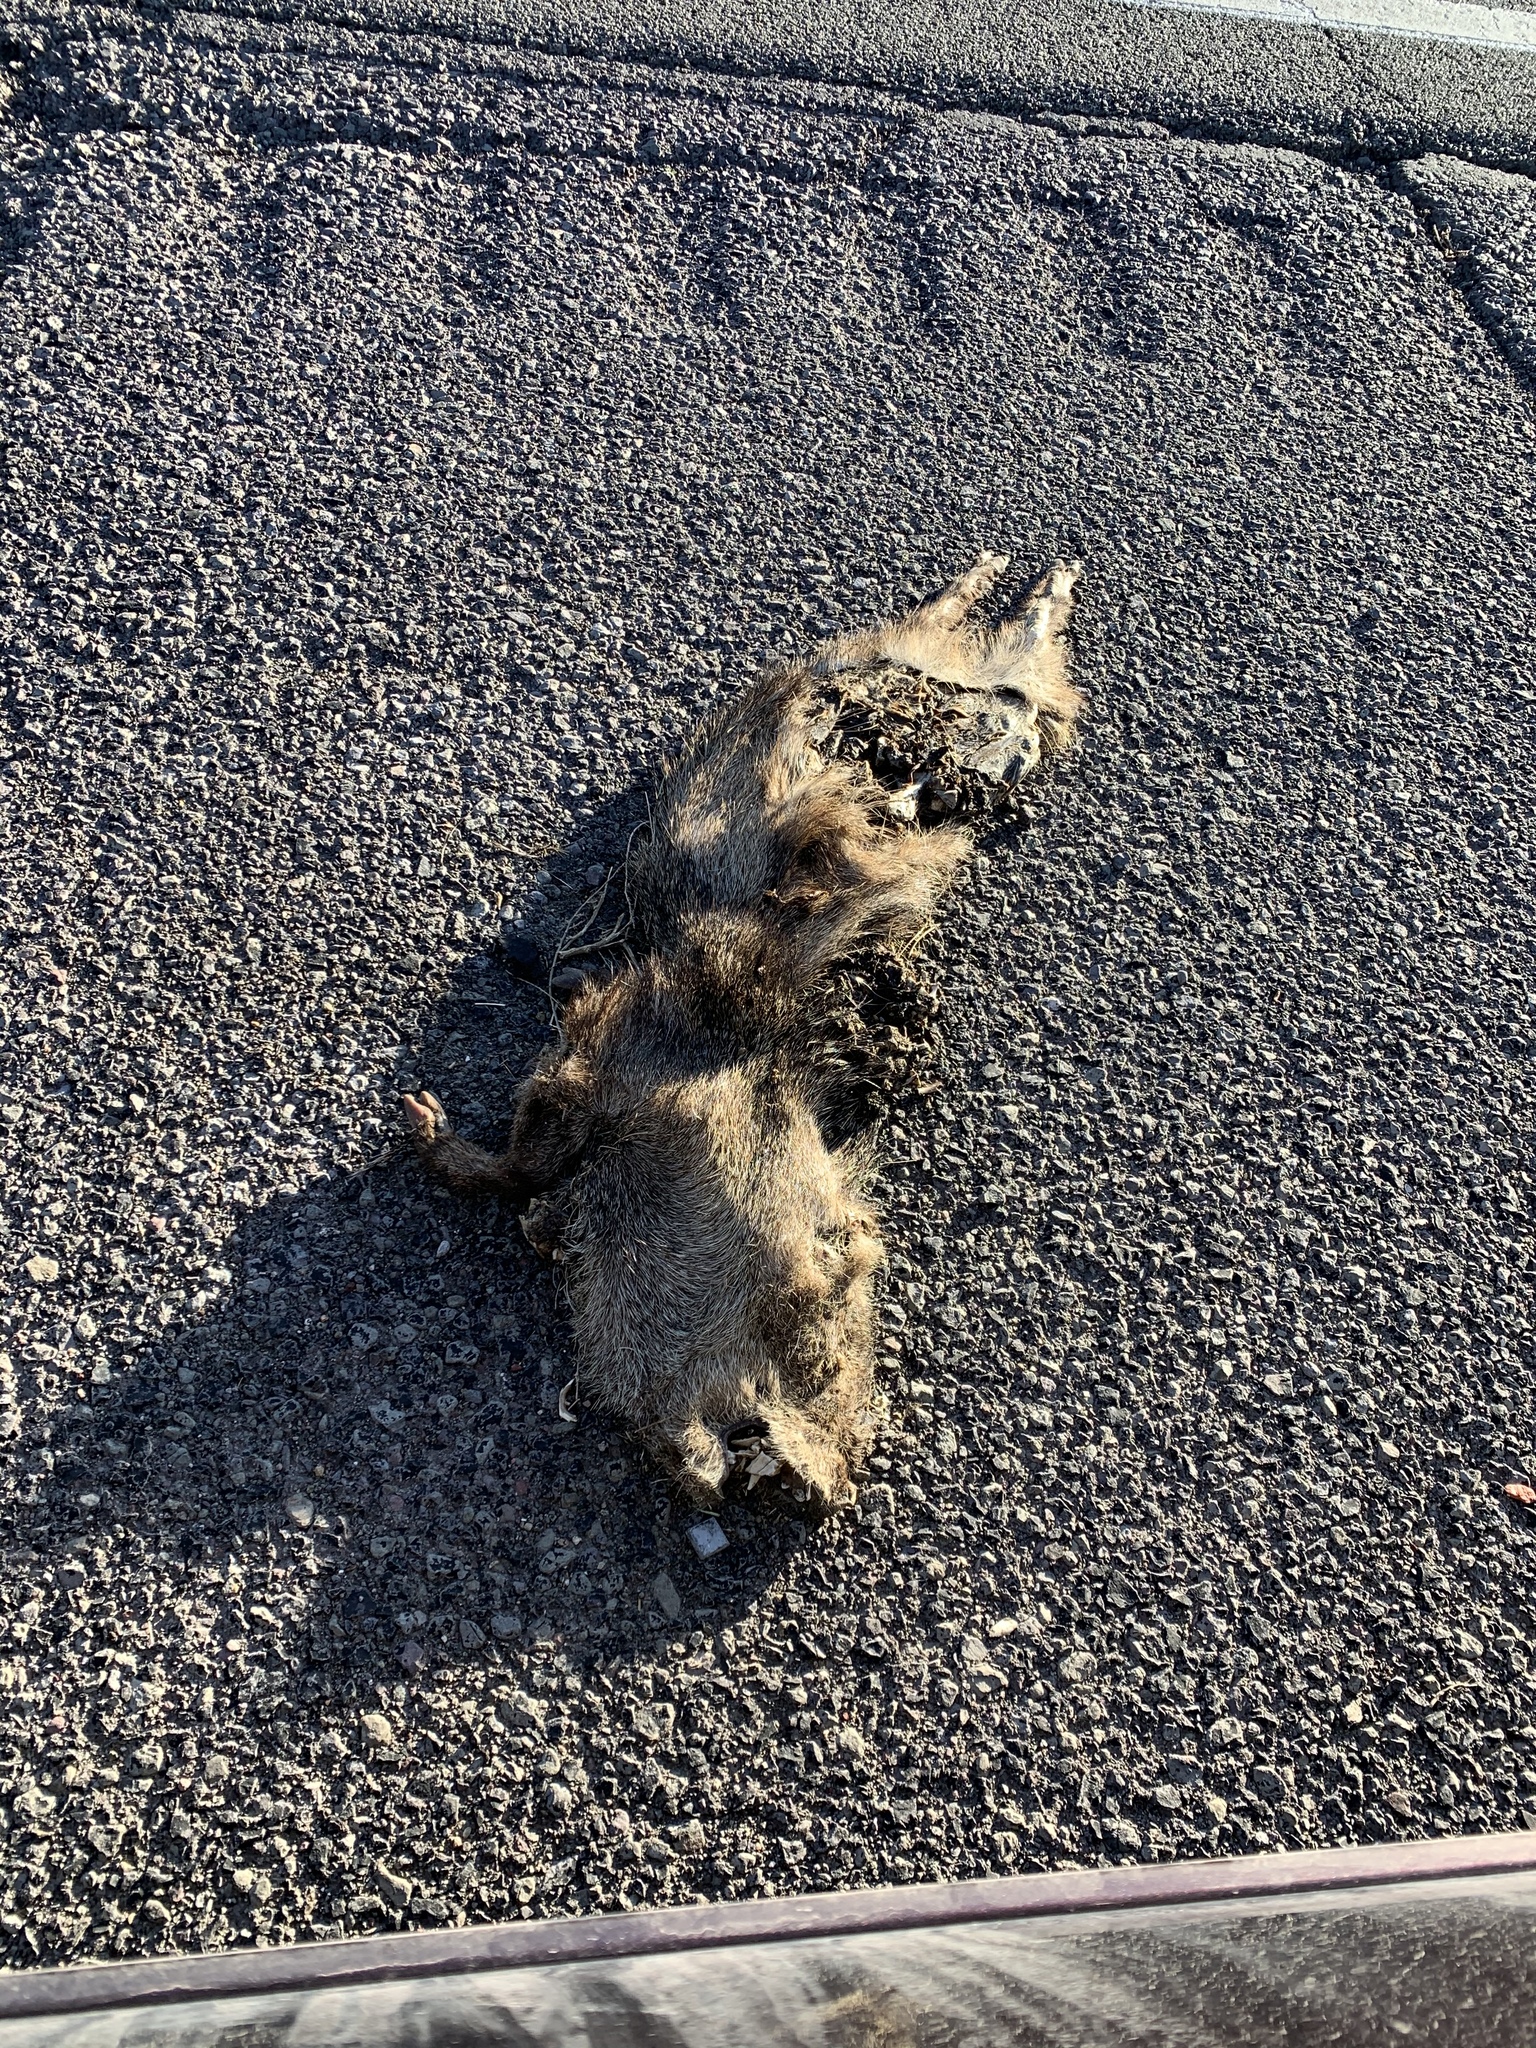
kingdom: Animalia
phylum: Chordata
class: Mammalia
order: Artiodactyla
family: Tayassuidae
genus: Pecari
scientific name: Pecari tajacu
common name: Collared peccary
